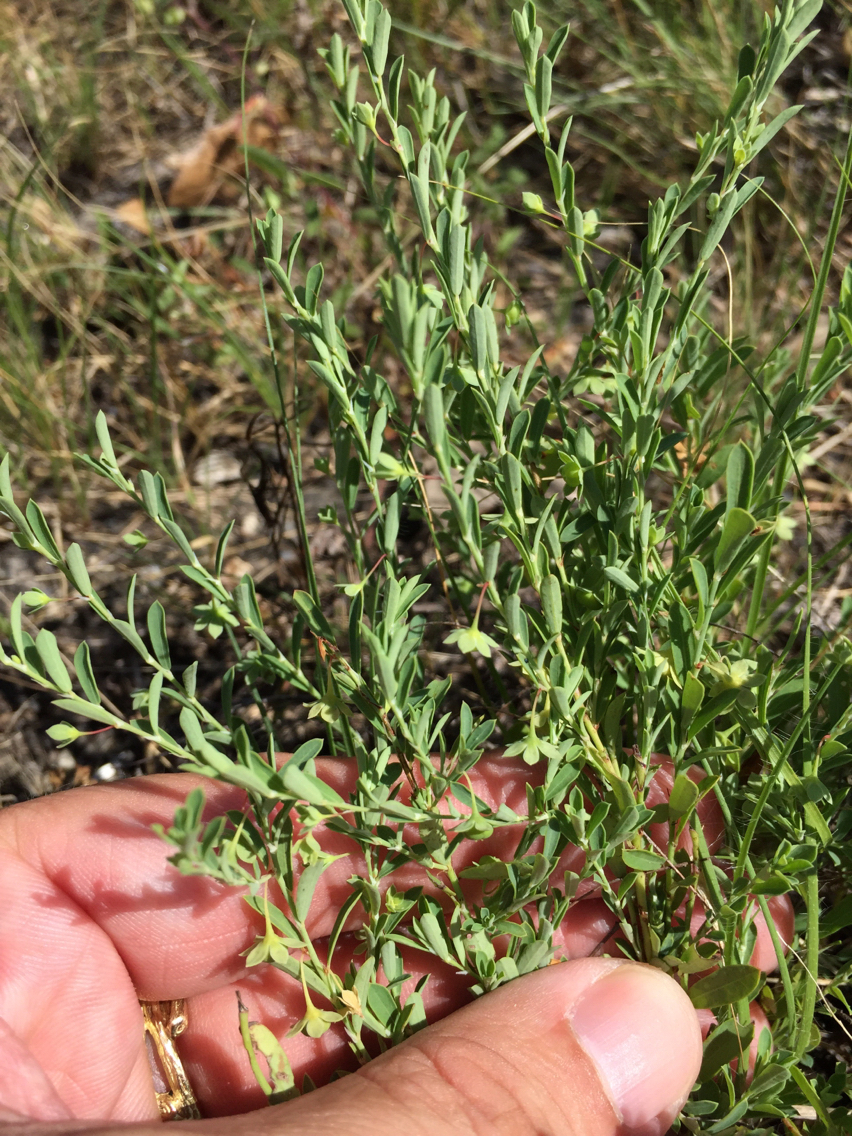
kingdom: Plantae
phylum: Tracheophyta
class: Magnoliopsida
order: Malpighiales
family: Phyllanthaceae
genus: Phyllanthus
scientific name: Phyllanthus polygonoides
